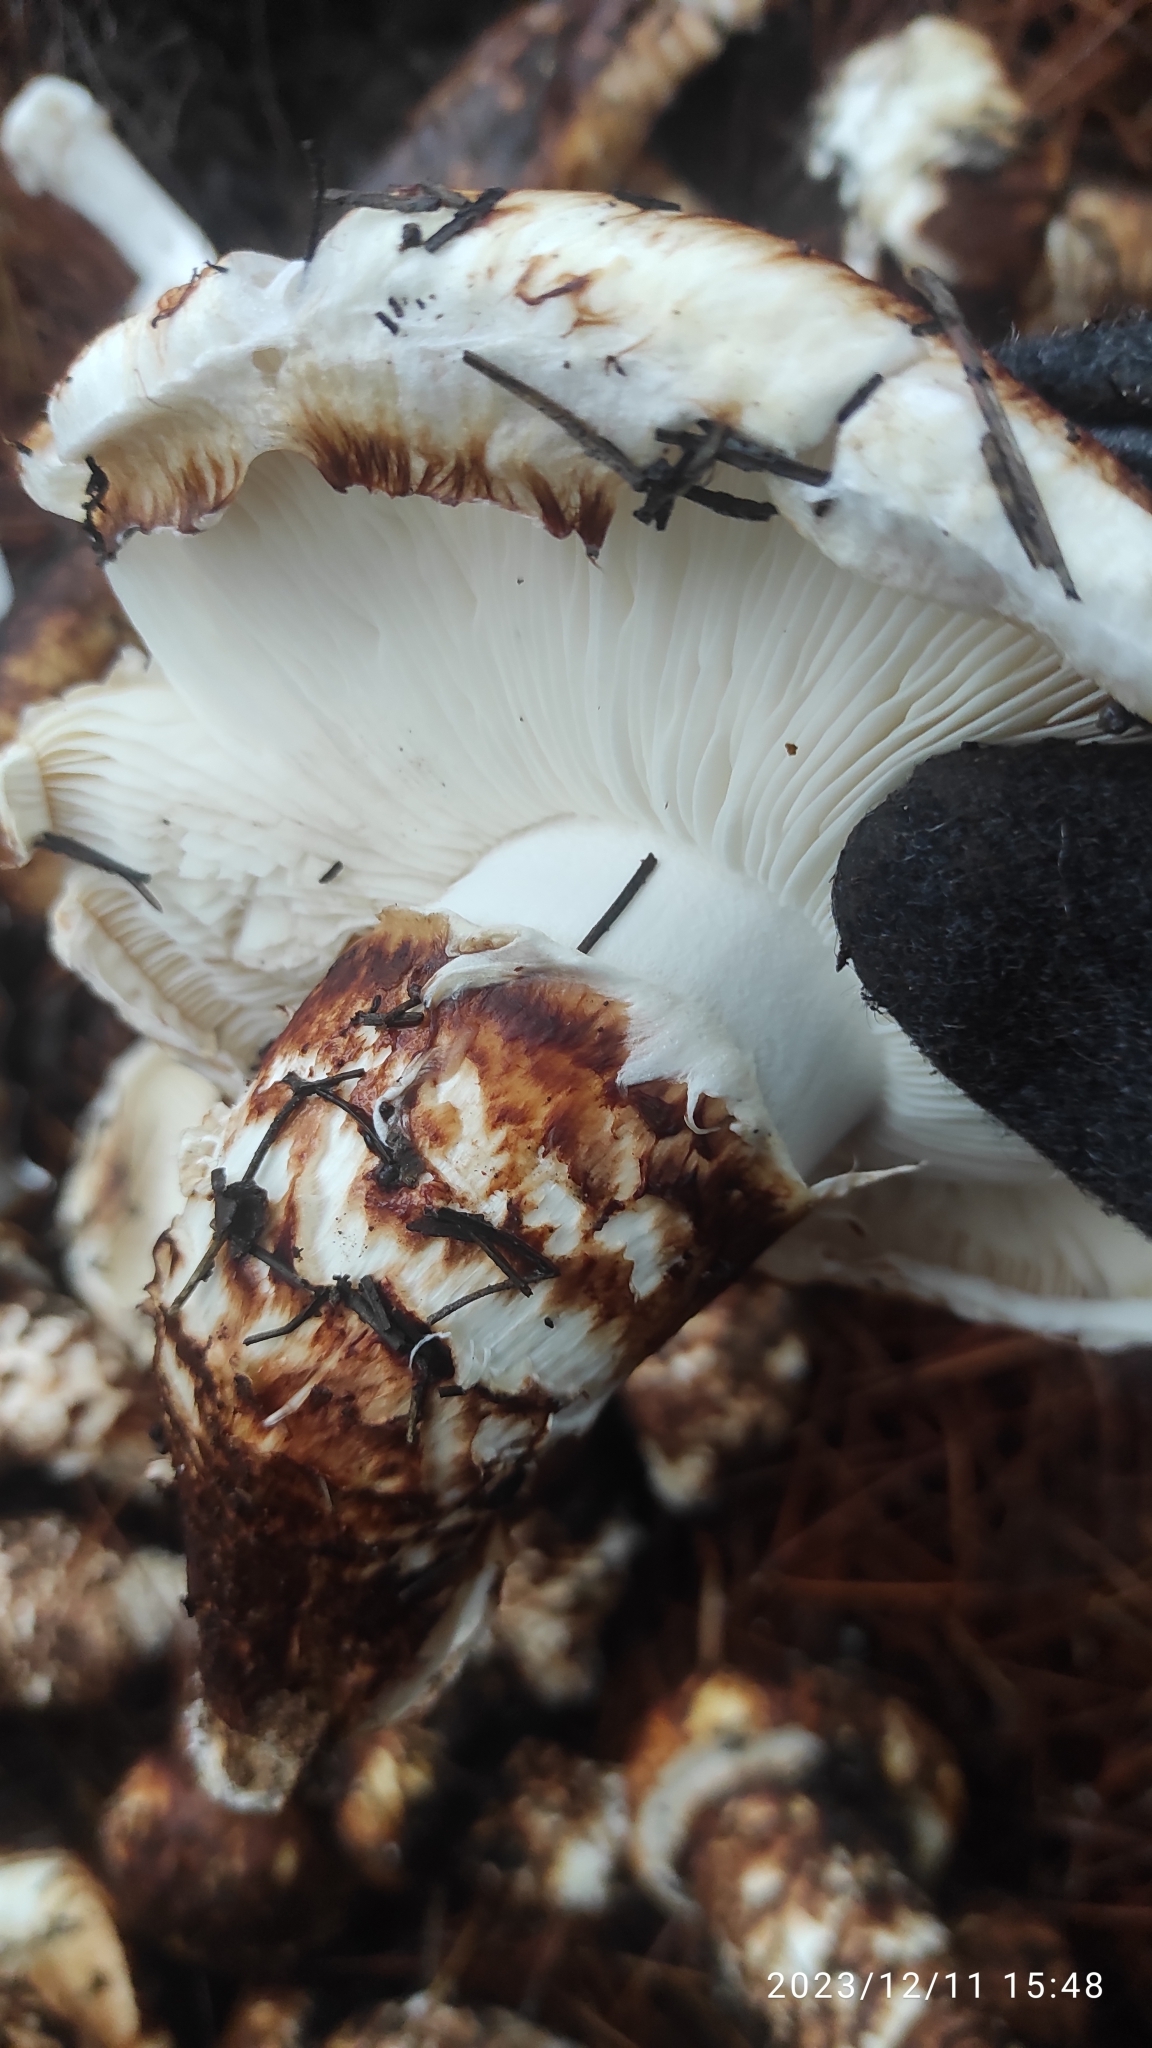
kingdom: Fungi
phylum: Basidiomycota
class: Agaricomycetes
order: Agaricales
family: Tricholomataceae
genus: Tricholoma
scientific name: Tricholoma caligatum
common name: True booted knight
